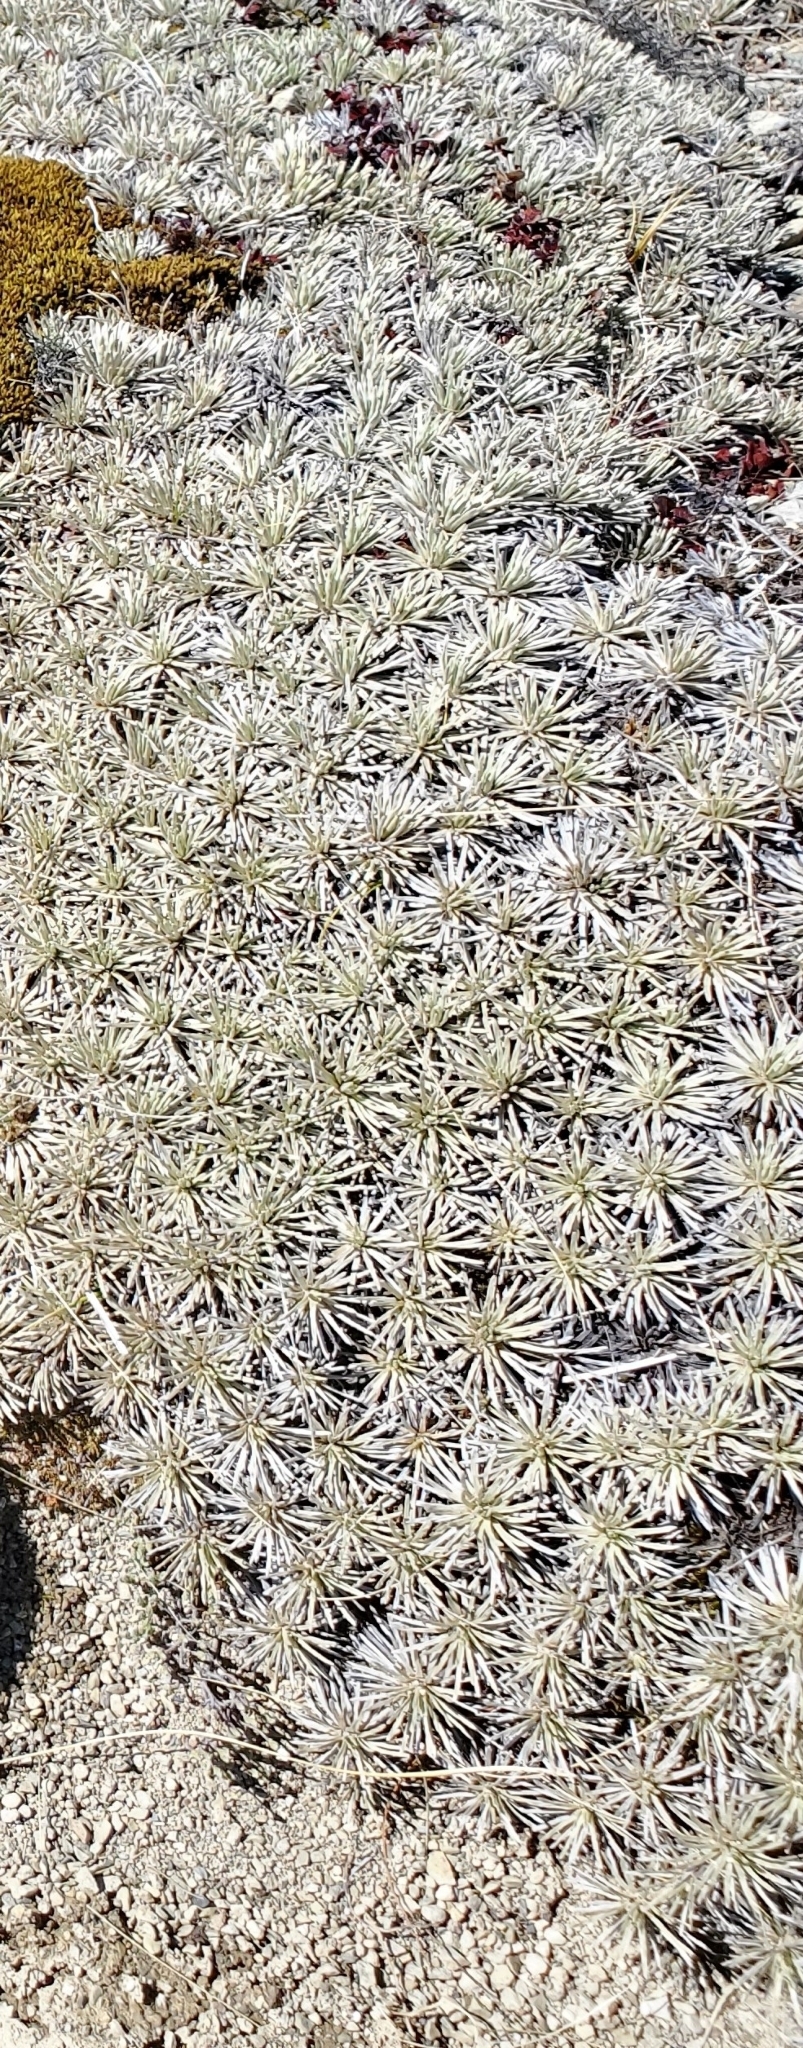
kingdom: Plantae
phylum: Tracheophyta
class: Magnoliopsida
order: Asterales
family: Asteraceae
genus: Celmisia
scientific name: Celmisia sessiliflora
